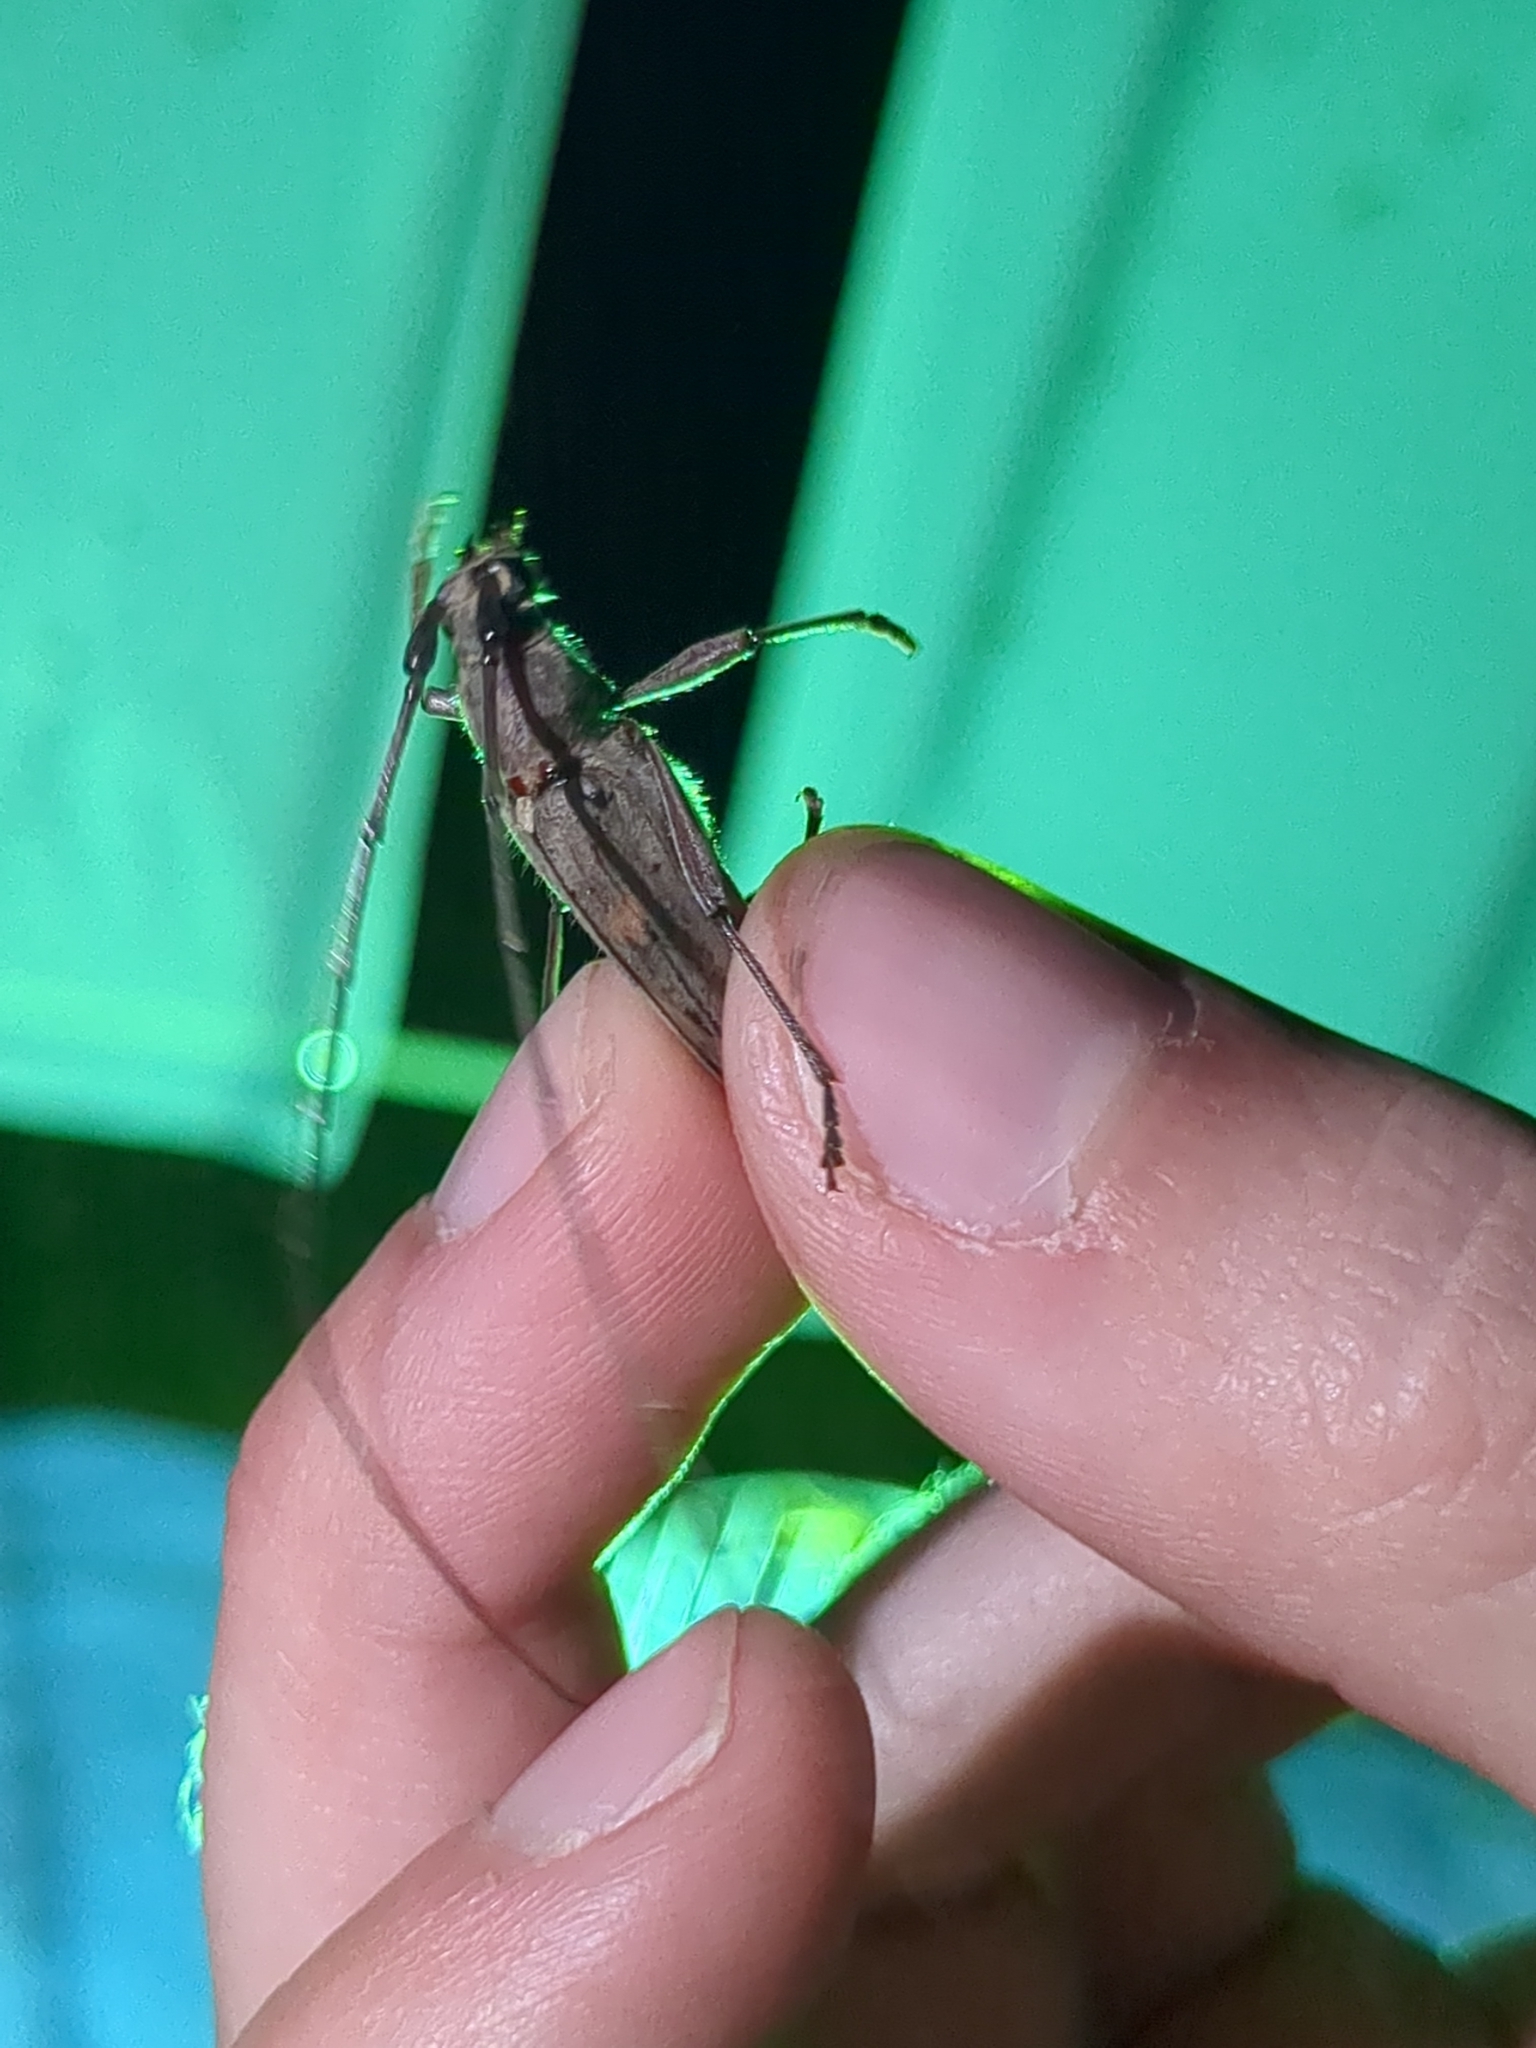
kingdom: Animalia
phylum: Arthropoda
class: Insecta
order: Coleoptera
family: Cerambycidae
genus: Knulliana
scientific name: Knulliana cincta
